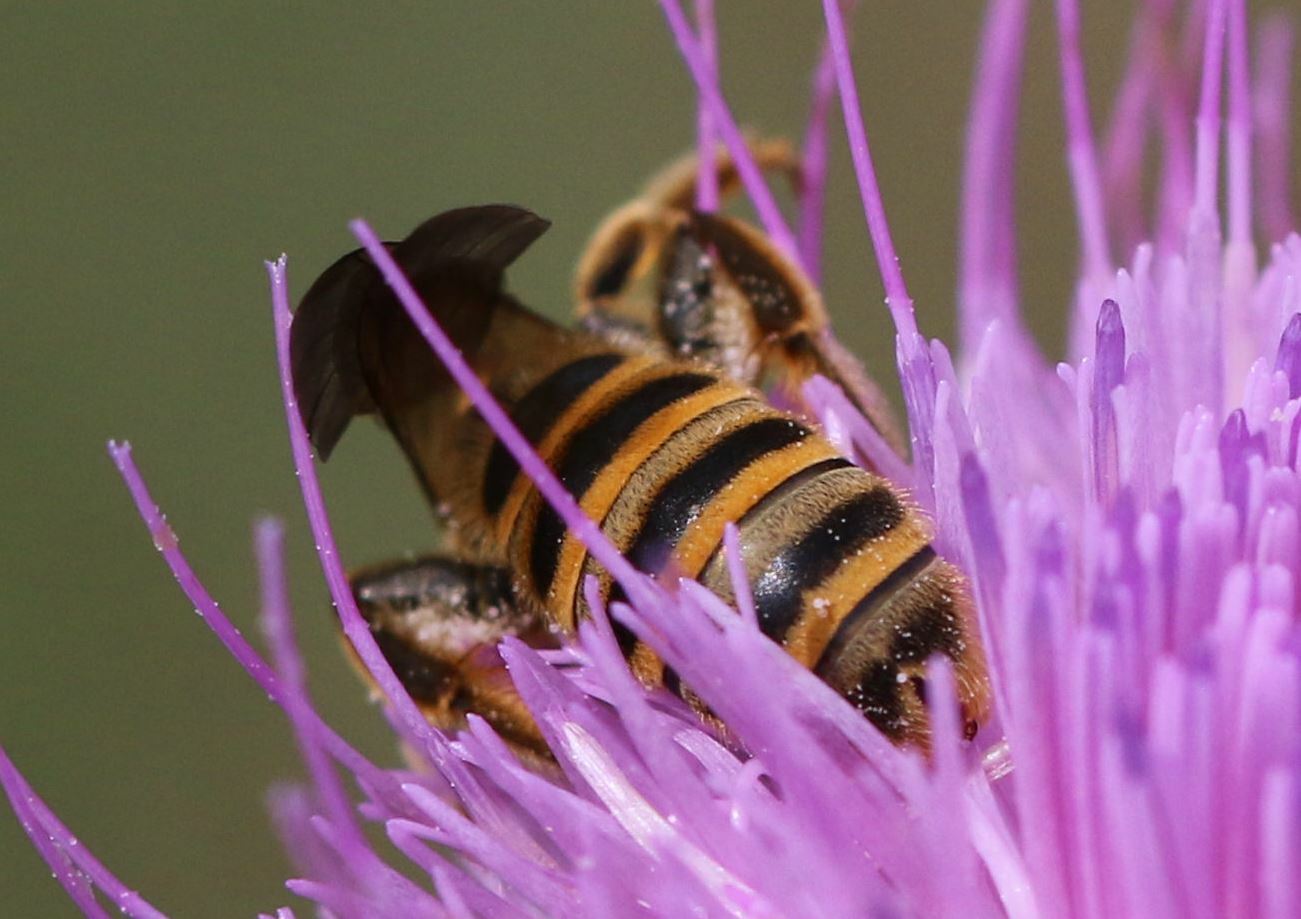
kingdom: Animalia
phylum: Arthropoda
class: Insecta
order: Hymenoptera
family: Halictidae
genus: Halictus
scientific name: Halictus scabiosae
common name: Great banded furrow bee
